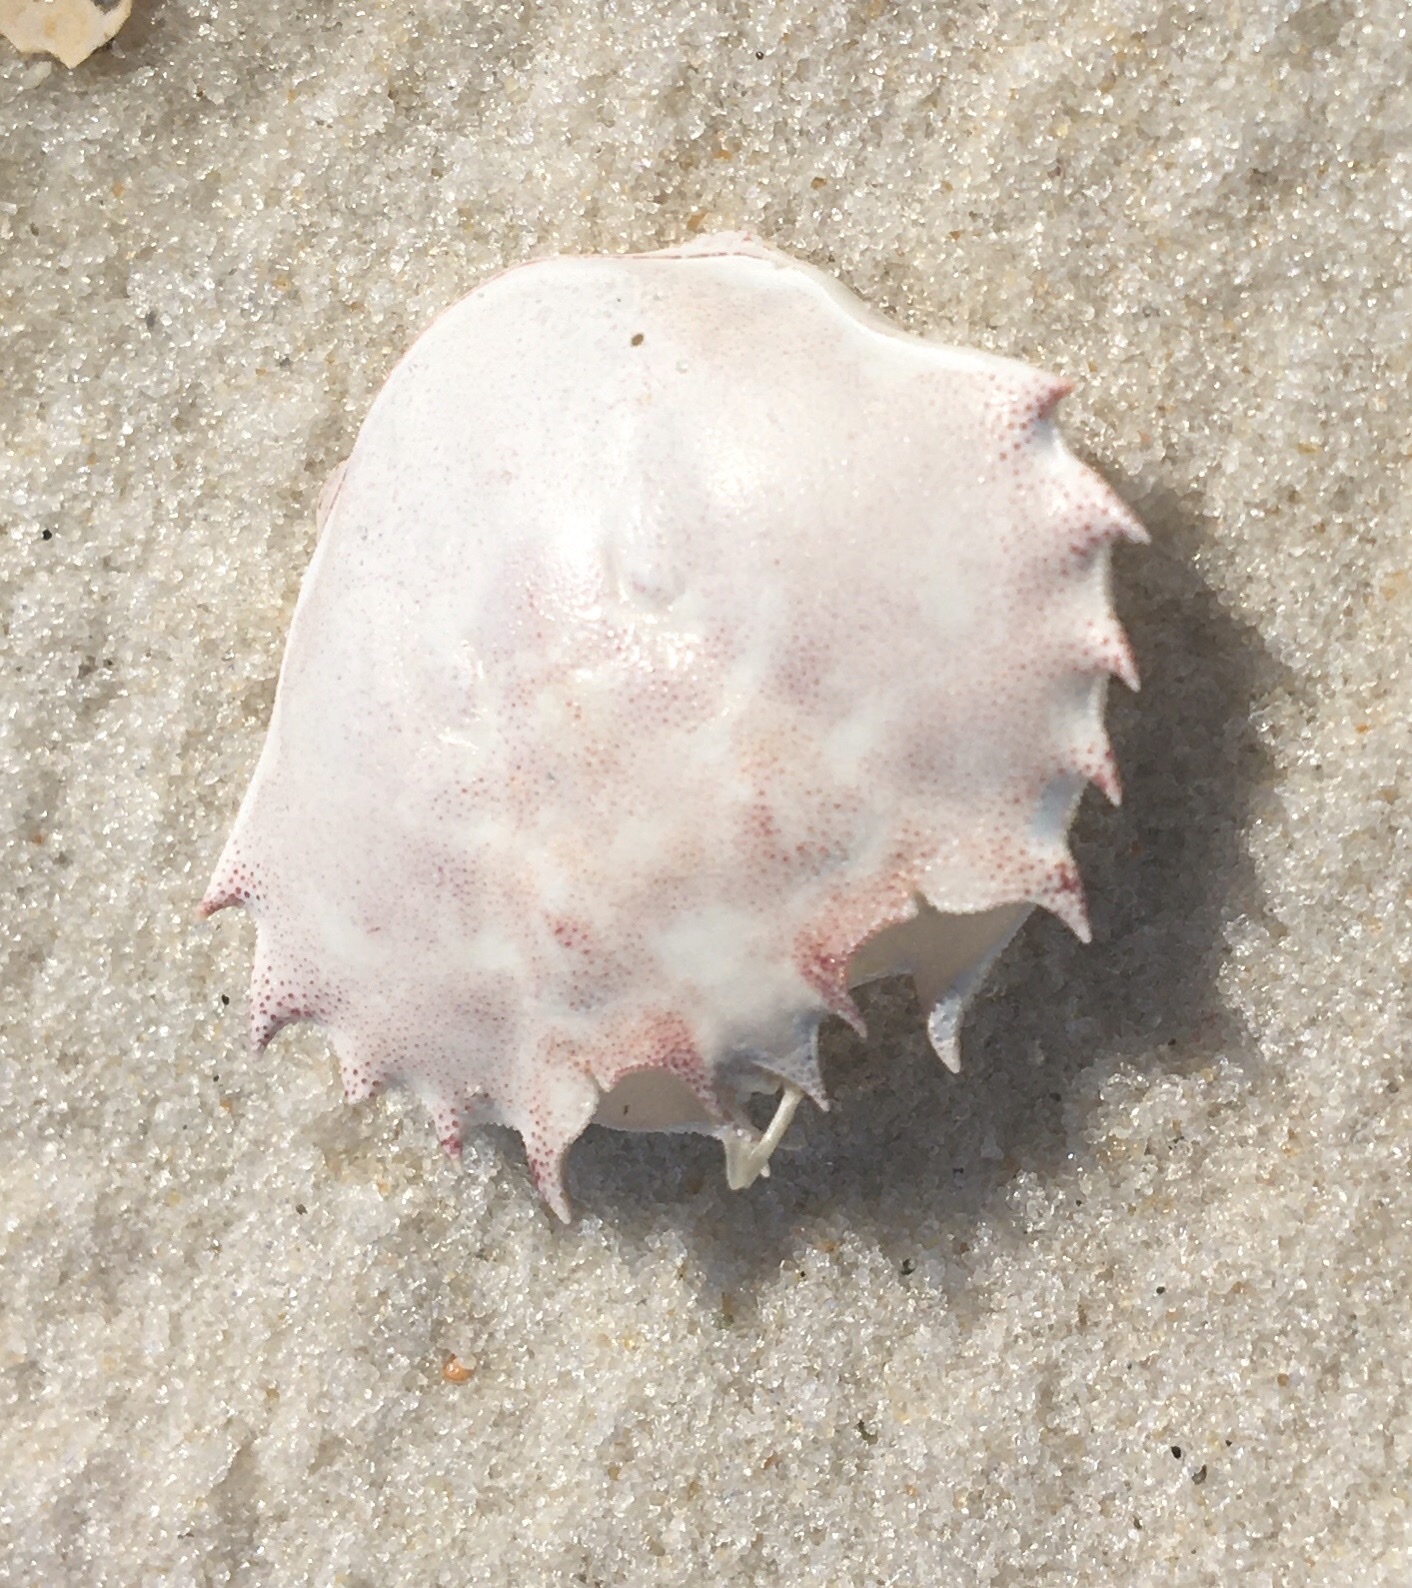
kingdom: Animalia
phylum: Arthropoda
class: Malacostraca
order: Decapoda
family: Ovalipidae
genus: Ovalipes
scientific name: Ovalipes floridanus
